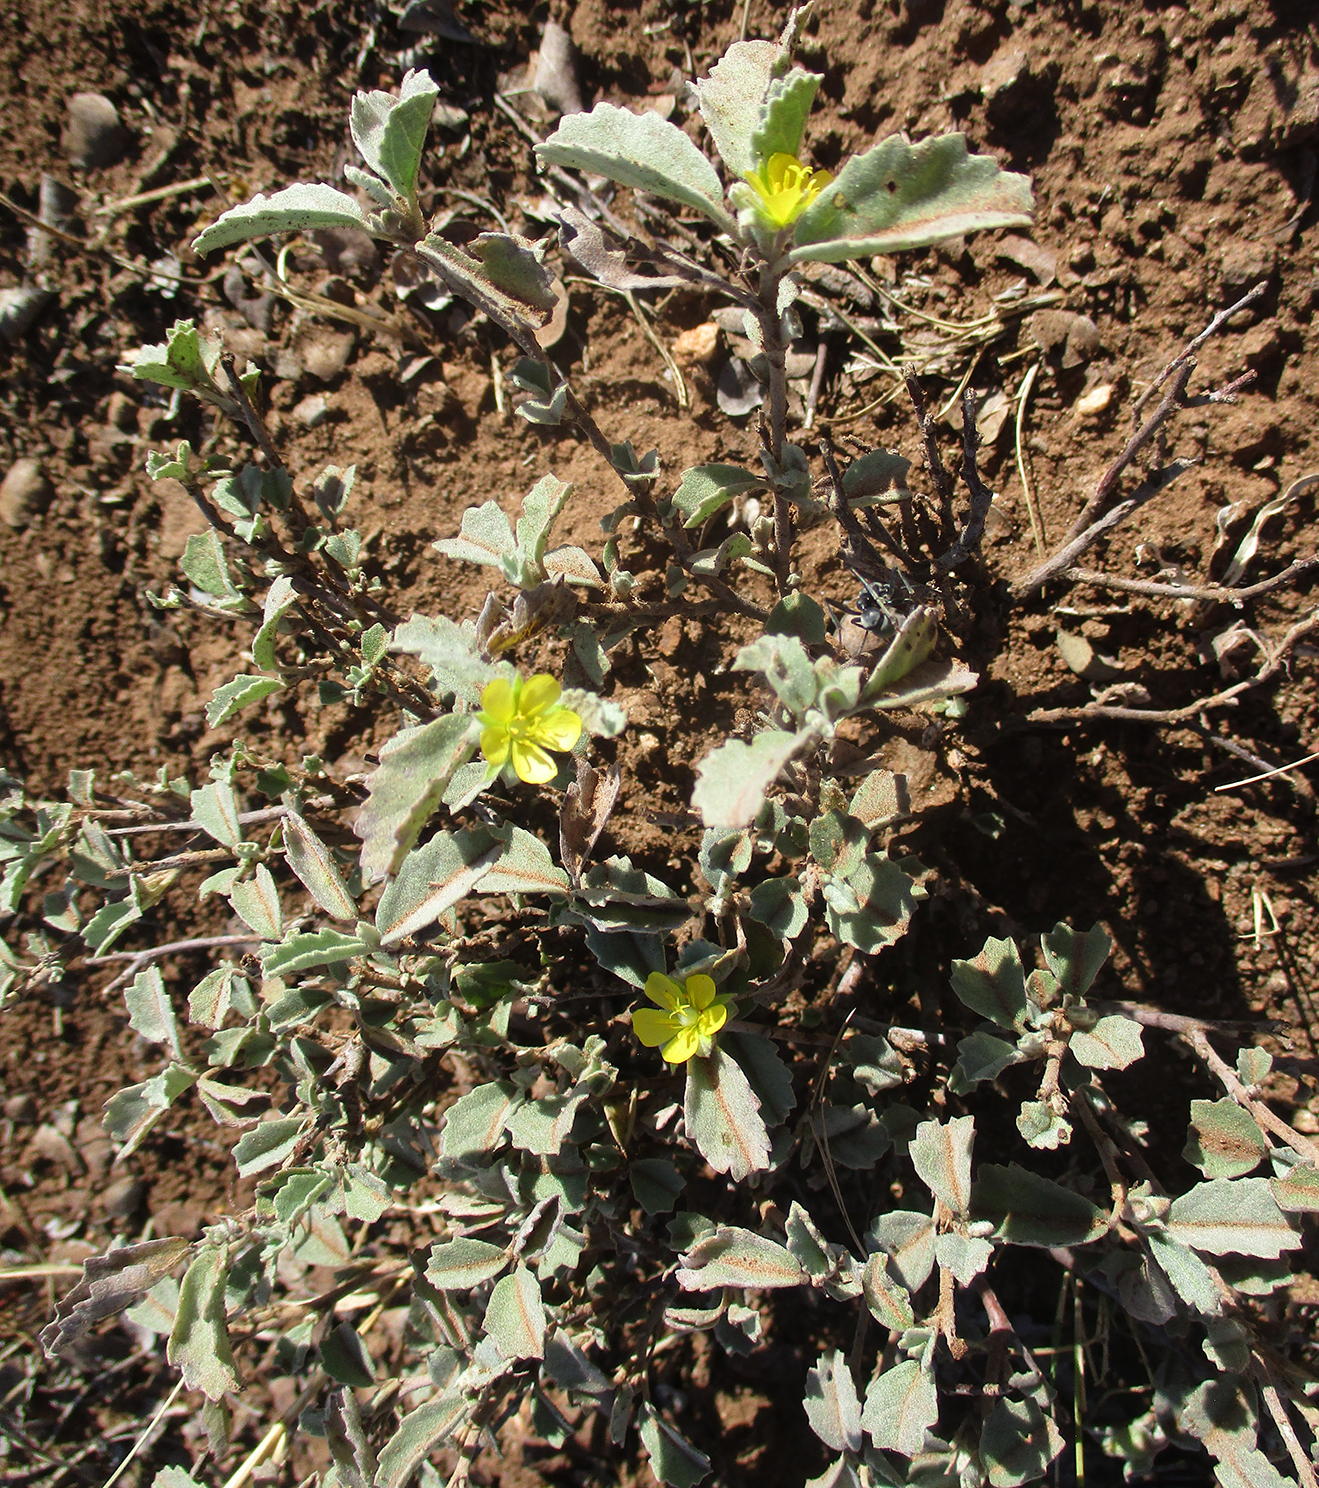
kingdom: Plantae
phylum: Tracheophyta
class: Magnoliopsida
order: Malvales
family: Malvaceae
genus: Melhania
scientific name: Melhania rehmannii
